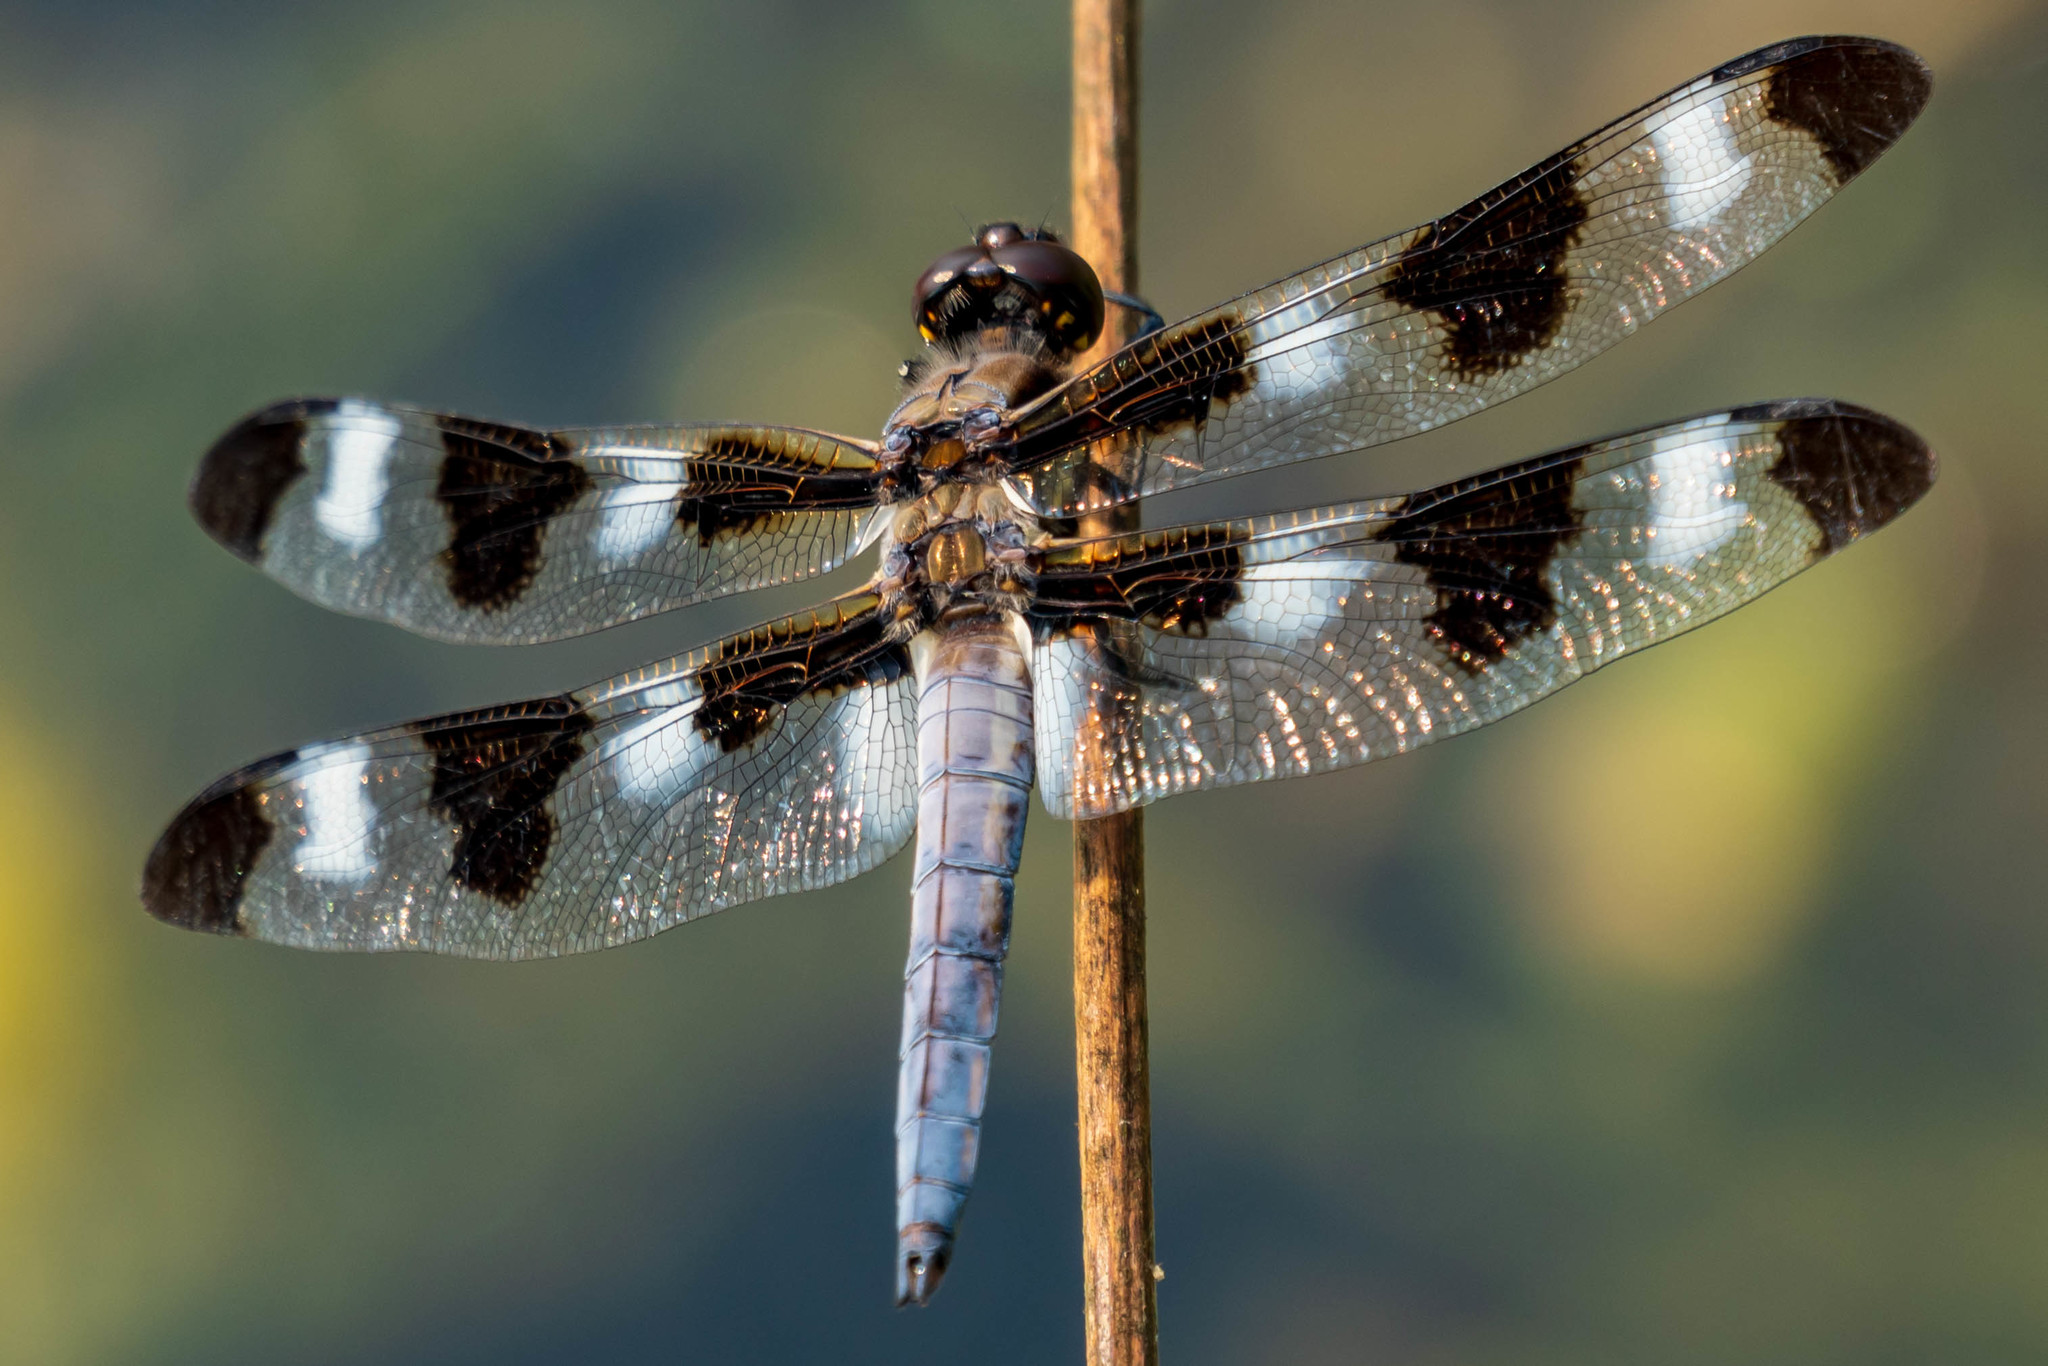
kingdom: Animalia
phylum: Arthropoda
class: Insecta
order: Odonata
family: Libellulidae
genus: Libellula
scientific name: Libellula pulchella
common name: Twelve-spotted skimmer
